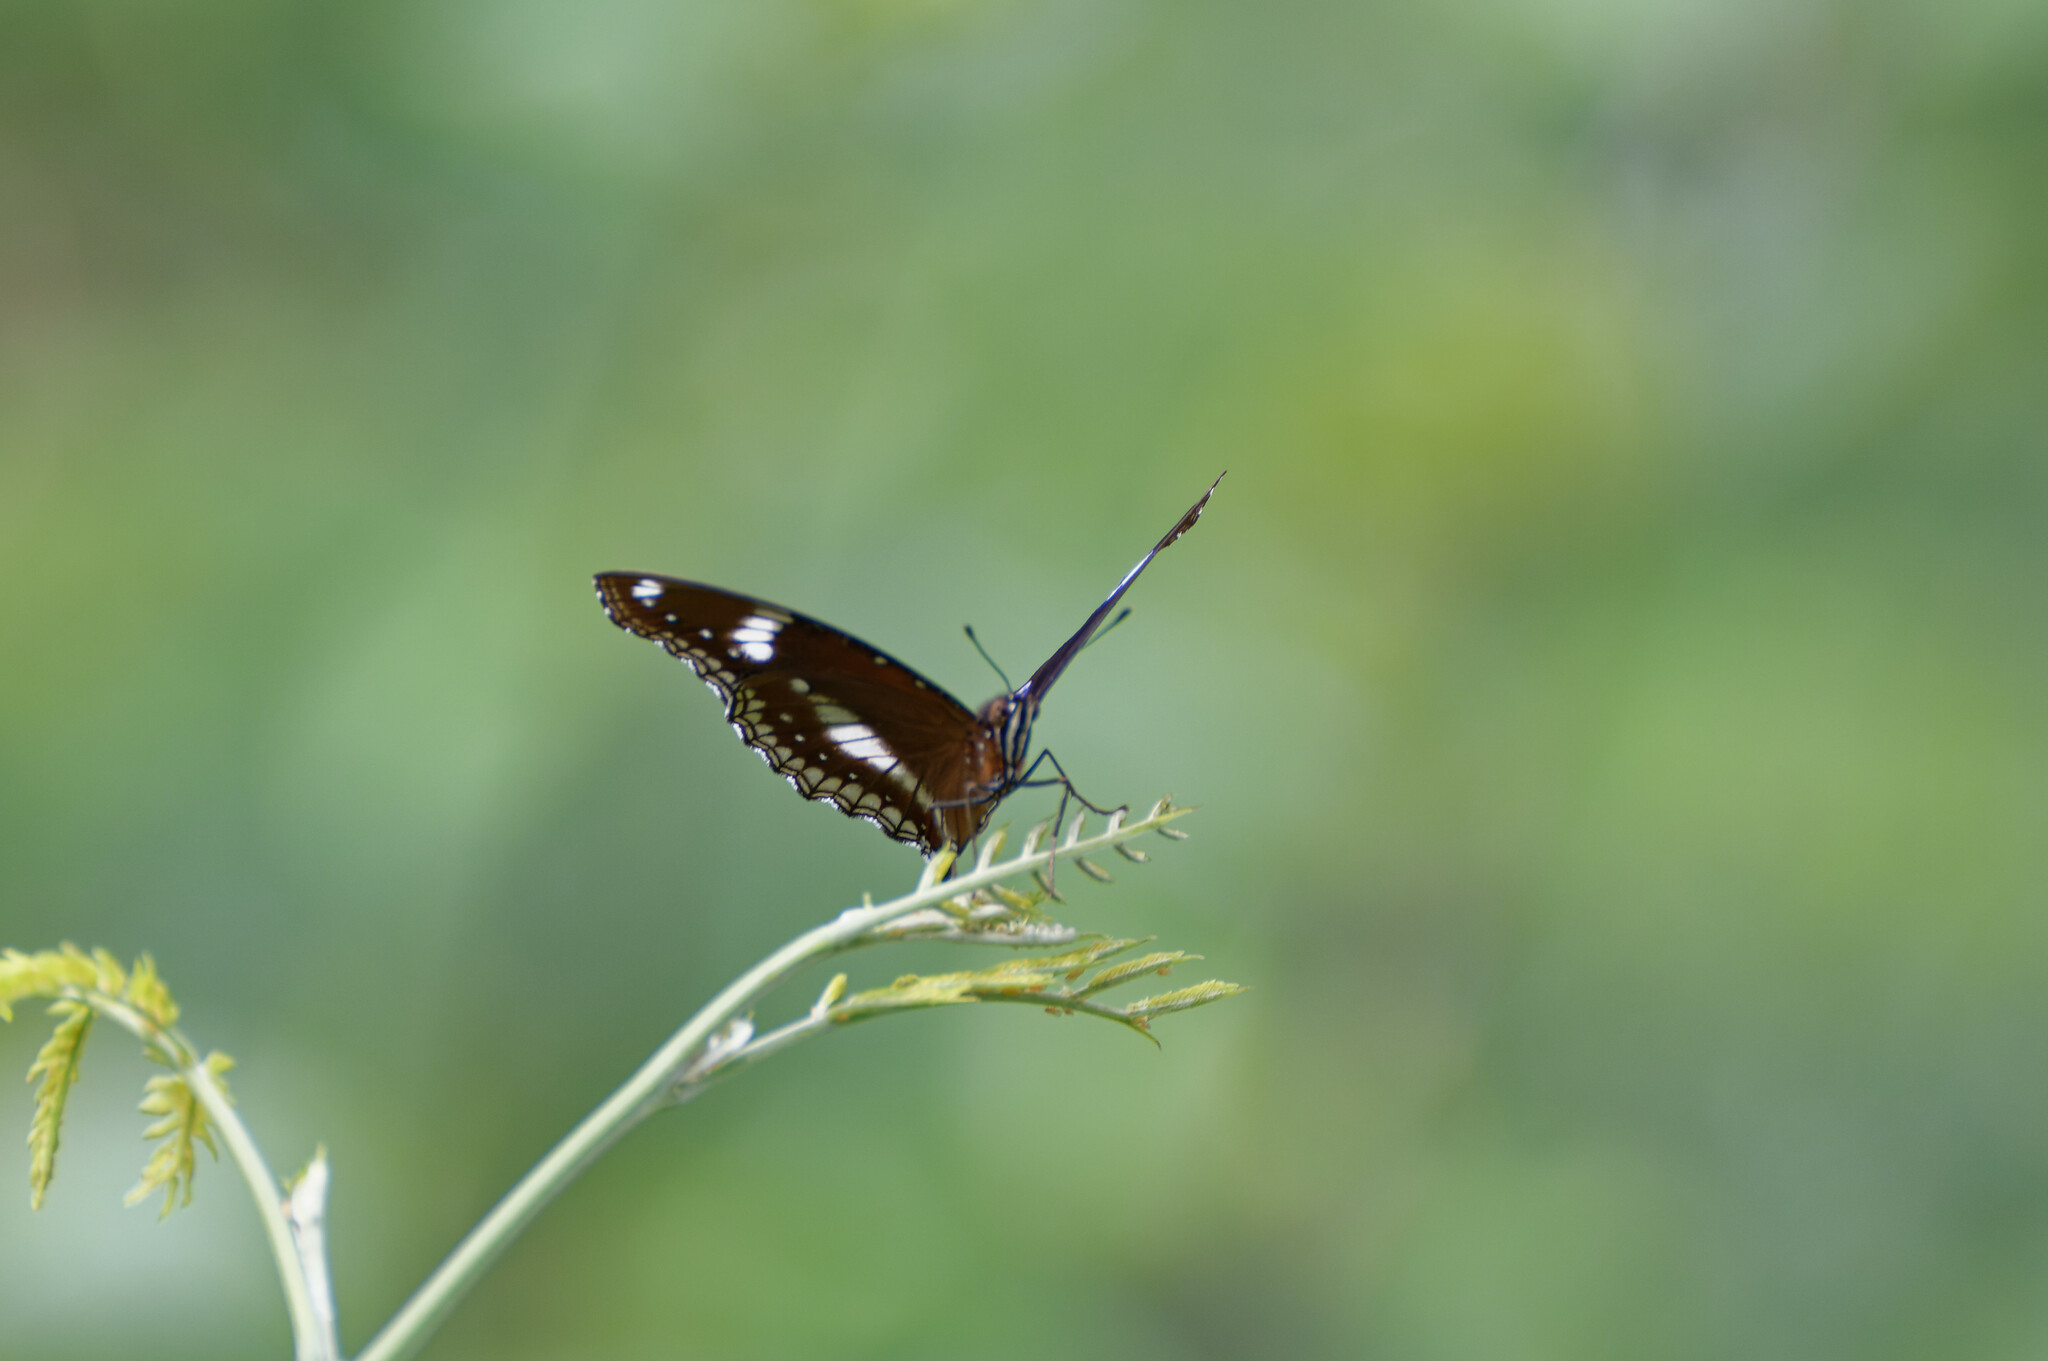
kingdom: Animalia
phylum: Arthropoda
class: Insecta
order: Lepidoptera
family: Nymphalidae
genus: Hypolimnas
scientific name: Hypolimnas bolina
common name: Great eggfly
